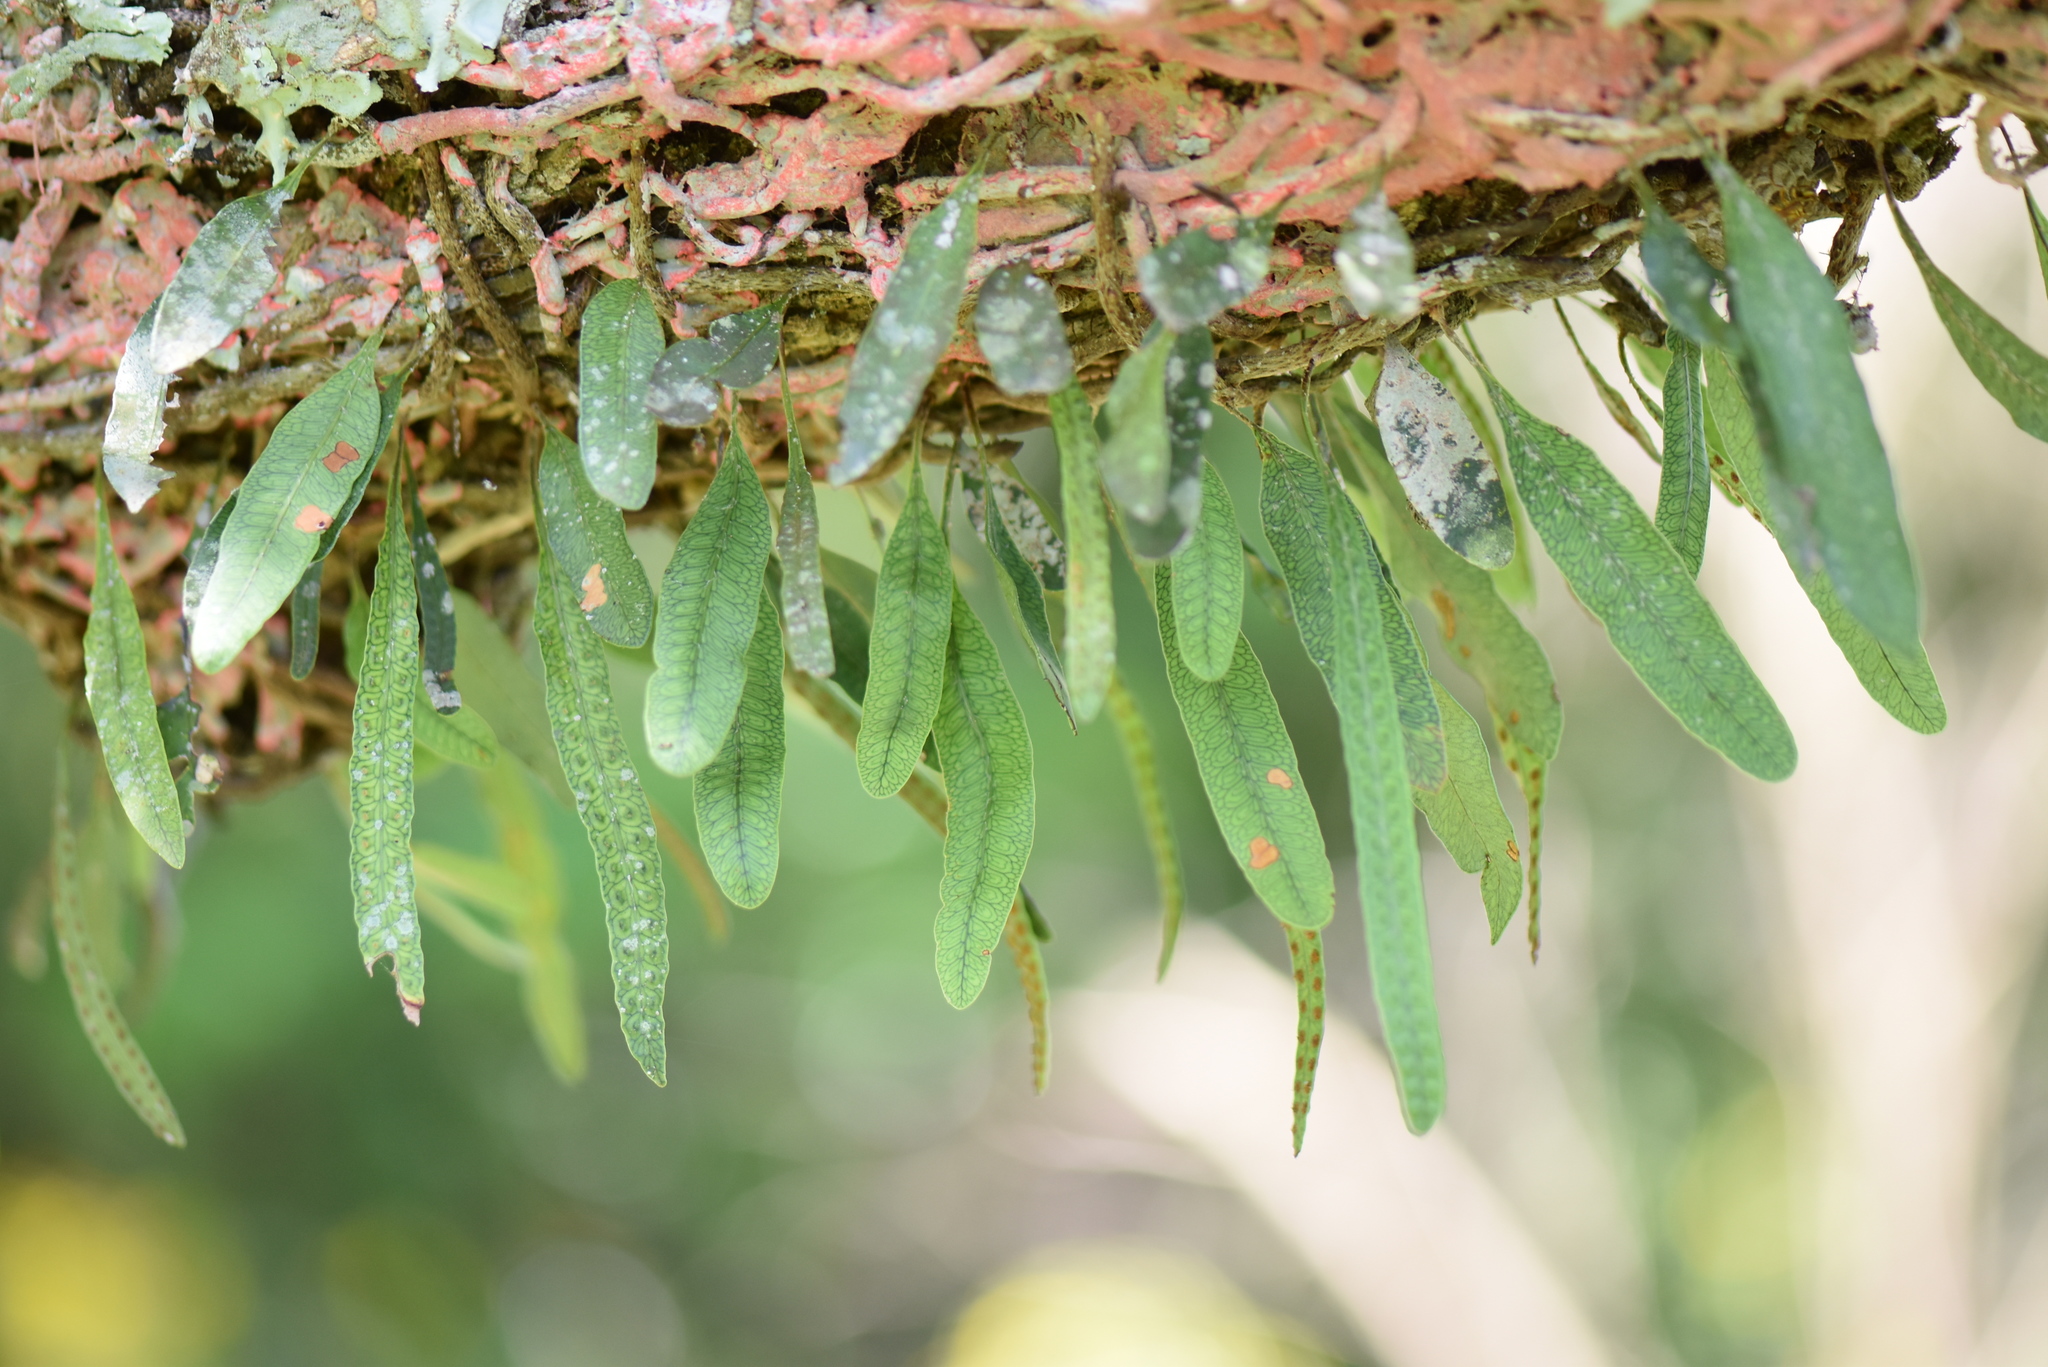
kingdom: Plantae
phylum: Tracheophyta
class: Polypodiopsida
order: Polypodiales
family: Polypodiaceae
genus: Microgramma
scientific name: Microgramma mortoniana
